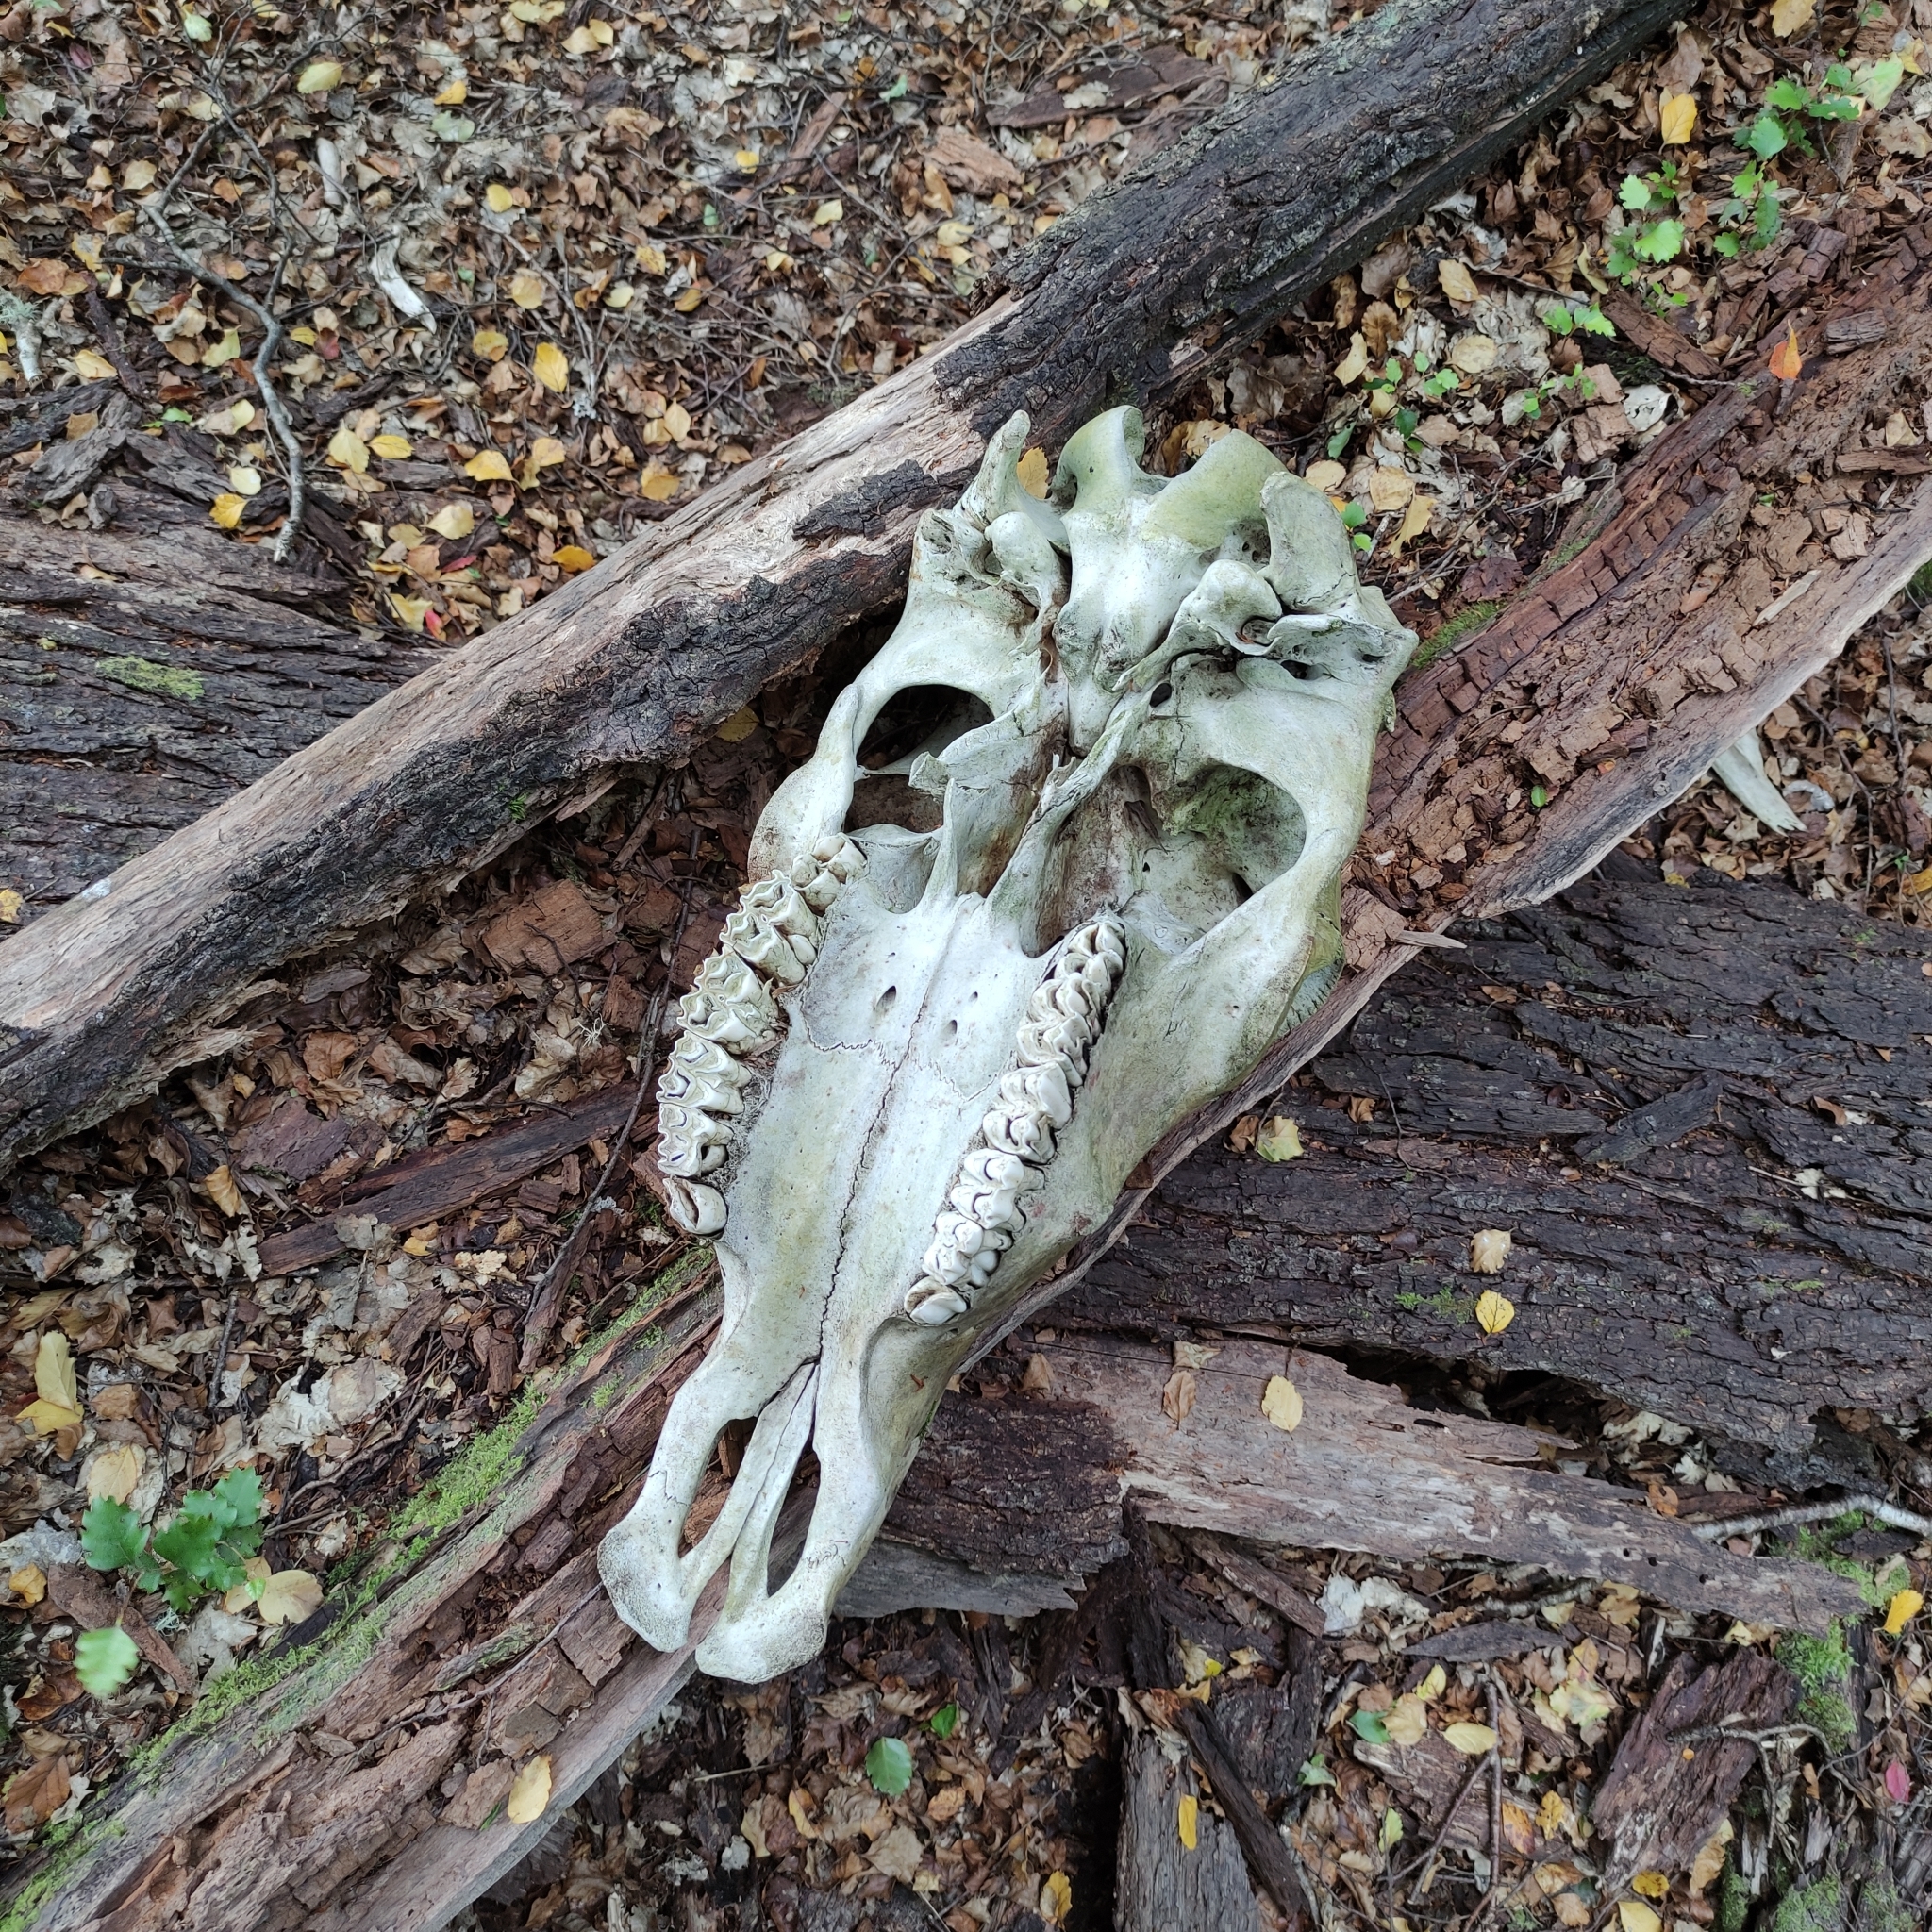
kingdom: Animalia
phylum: Chordata
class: Mammalia
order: Artiodactyla
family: Bovidae
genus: Bos
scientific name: Bos taurus
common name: Domesticated cattle
